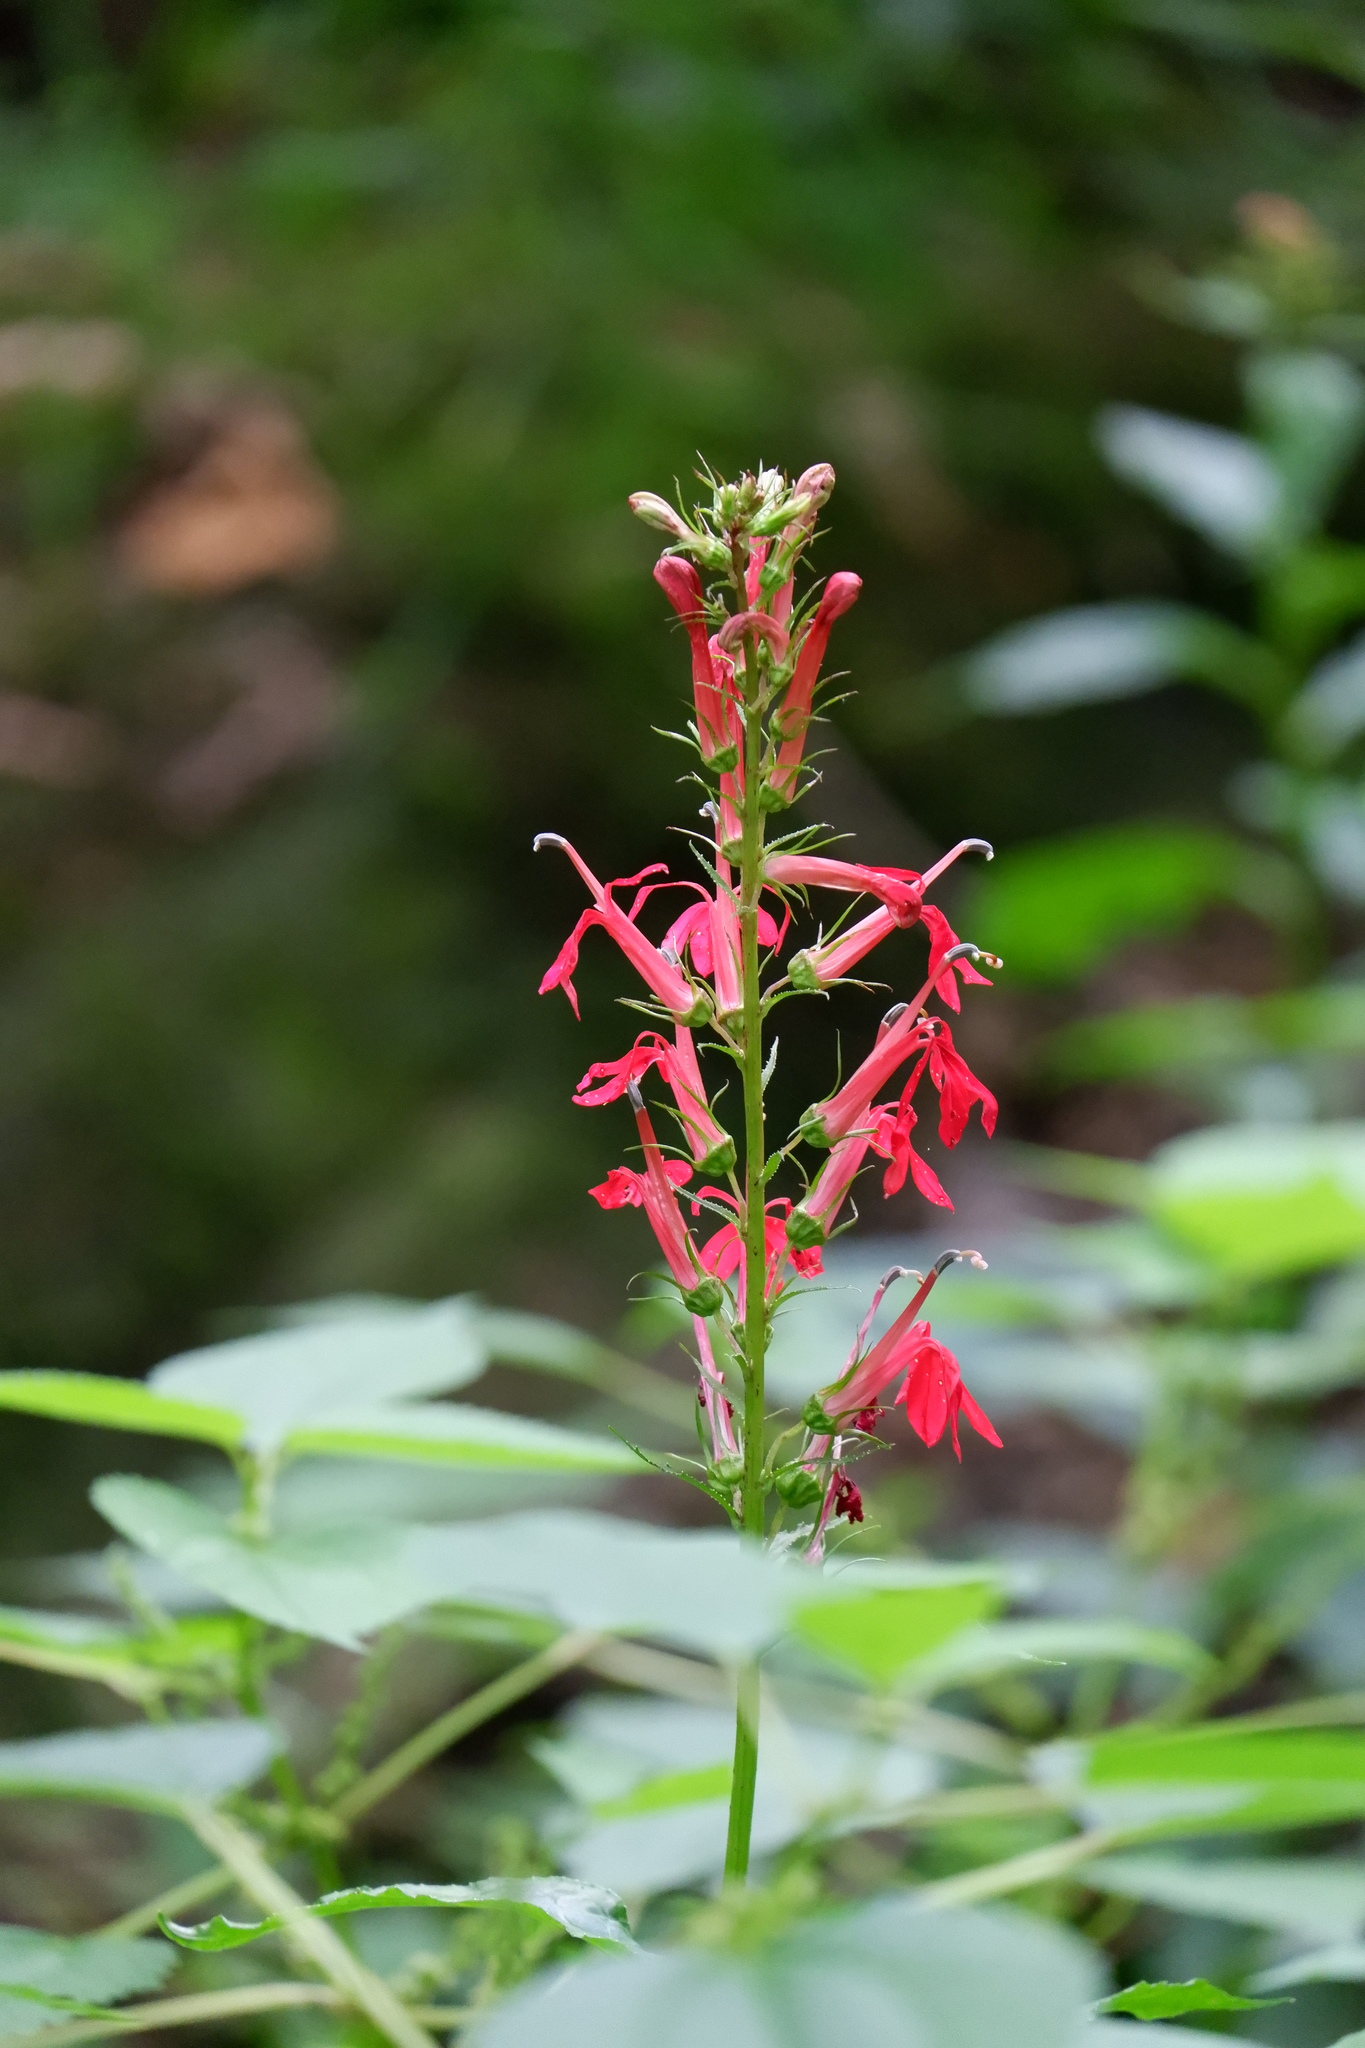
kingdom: Plantae
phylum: Tracheophyta
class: Magnoliopsida
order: Asterales
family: Campanulaceae
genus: Lobelia
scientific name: Lobelia cardinalis
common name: Cardinal flower
